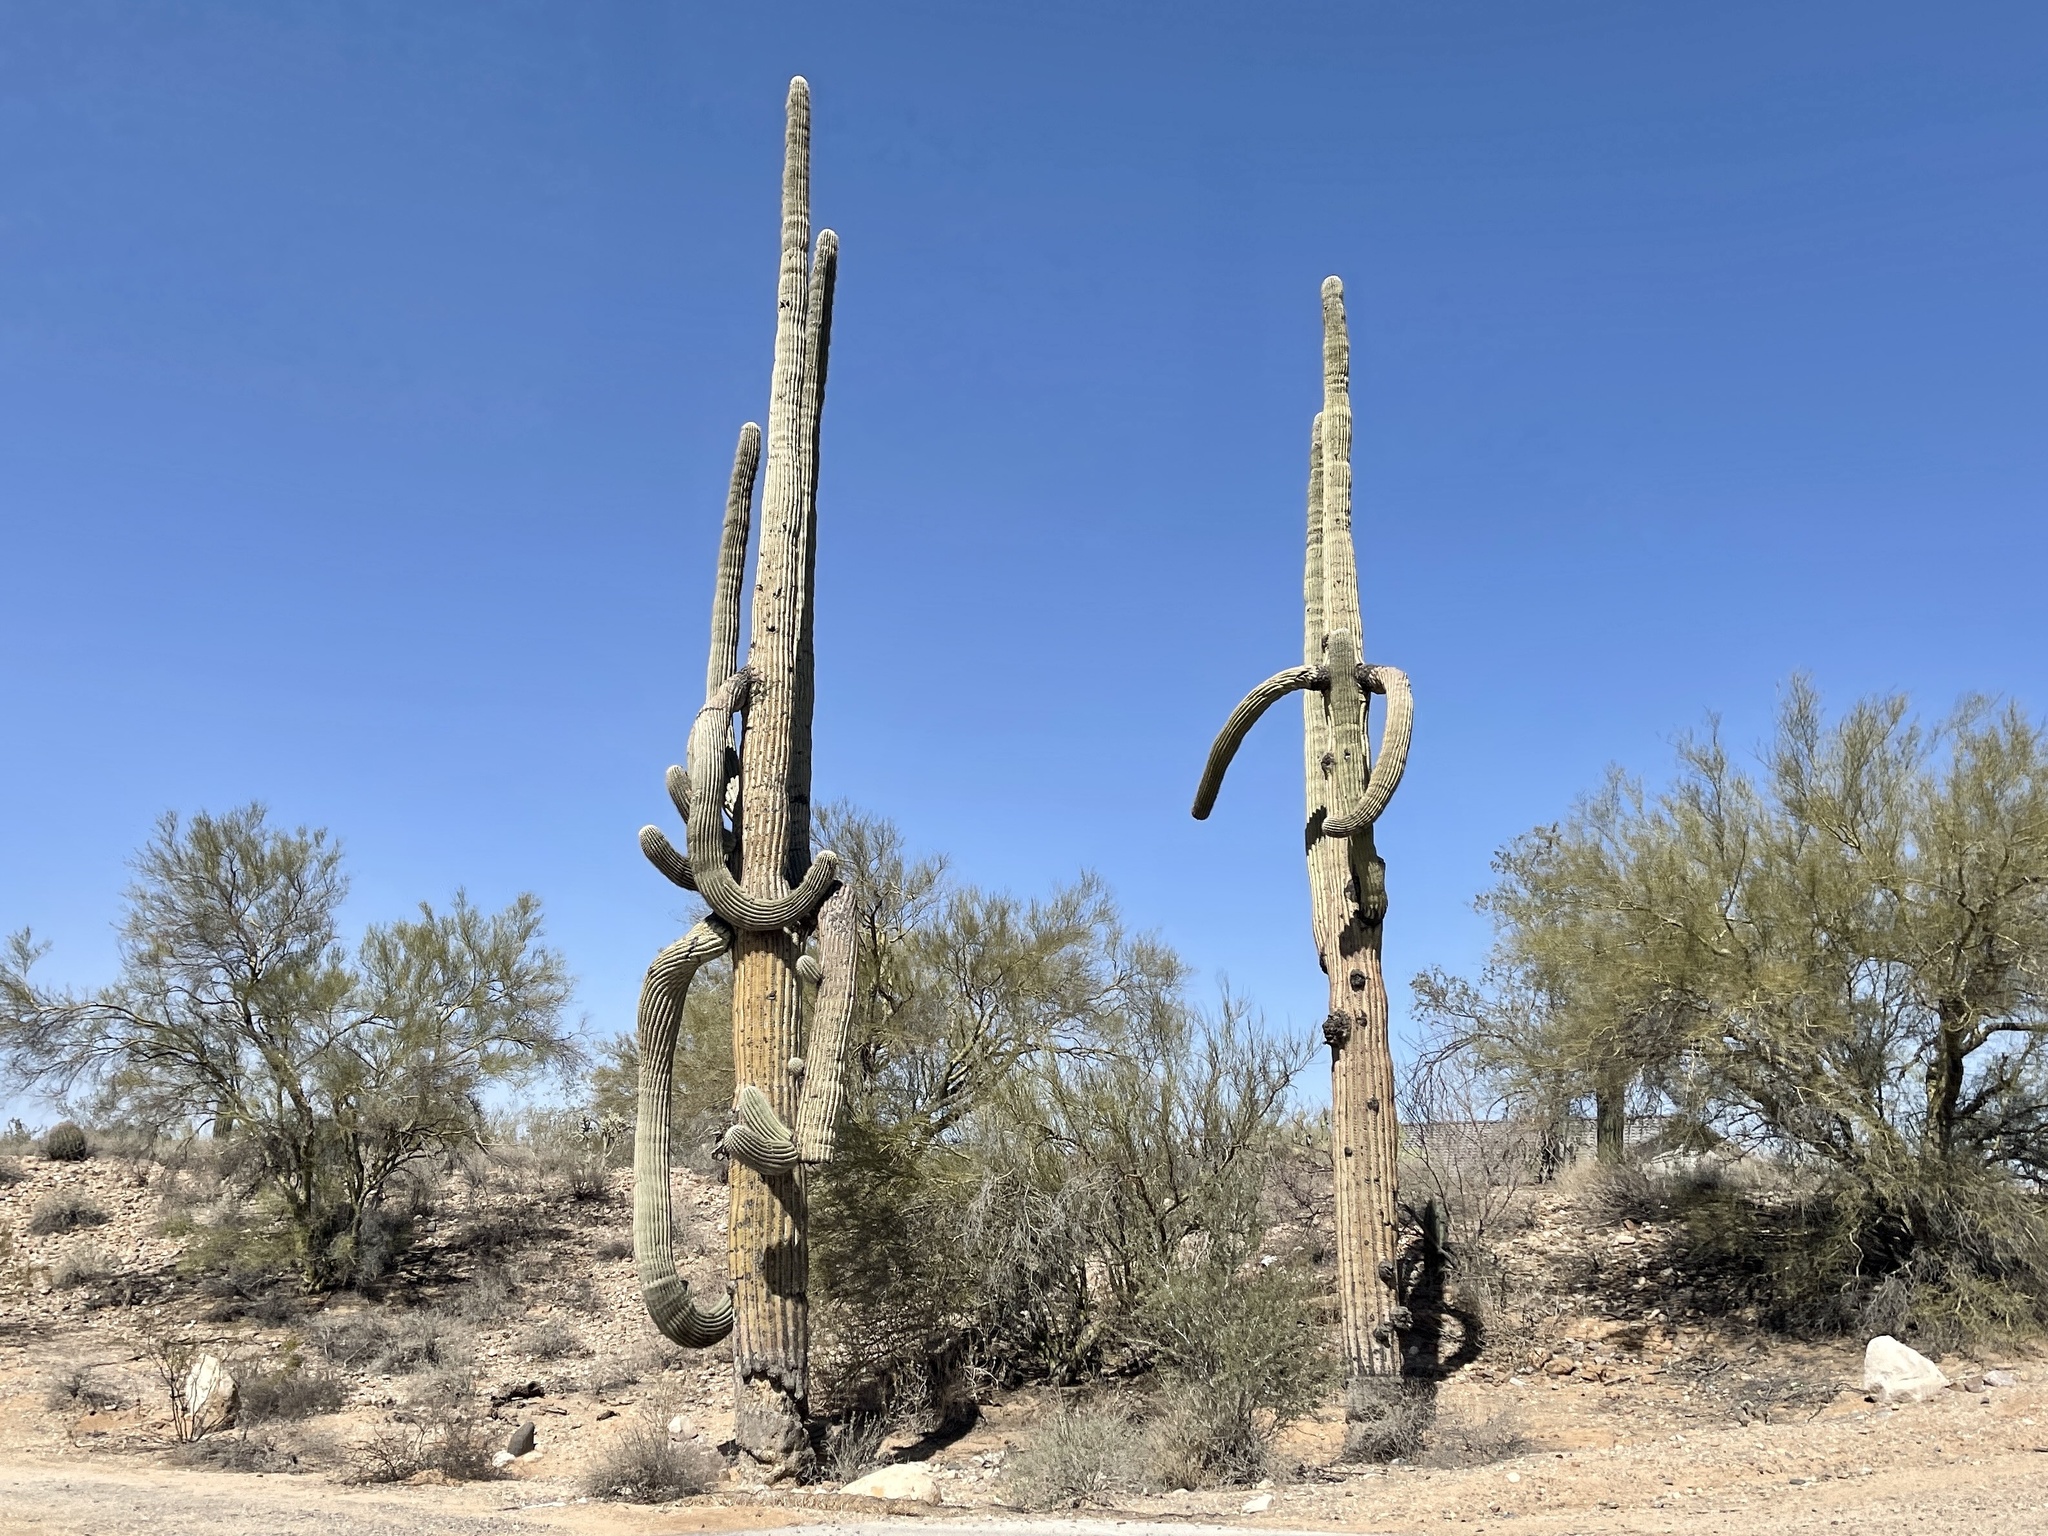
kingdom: Plantae
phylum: Tracheophyta
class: Magnoliopsida
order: Caryophyllales
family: Cactaceae
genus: Carnegiea
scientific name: Carnegiea gigantea
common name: Saguaro
